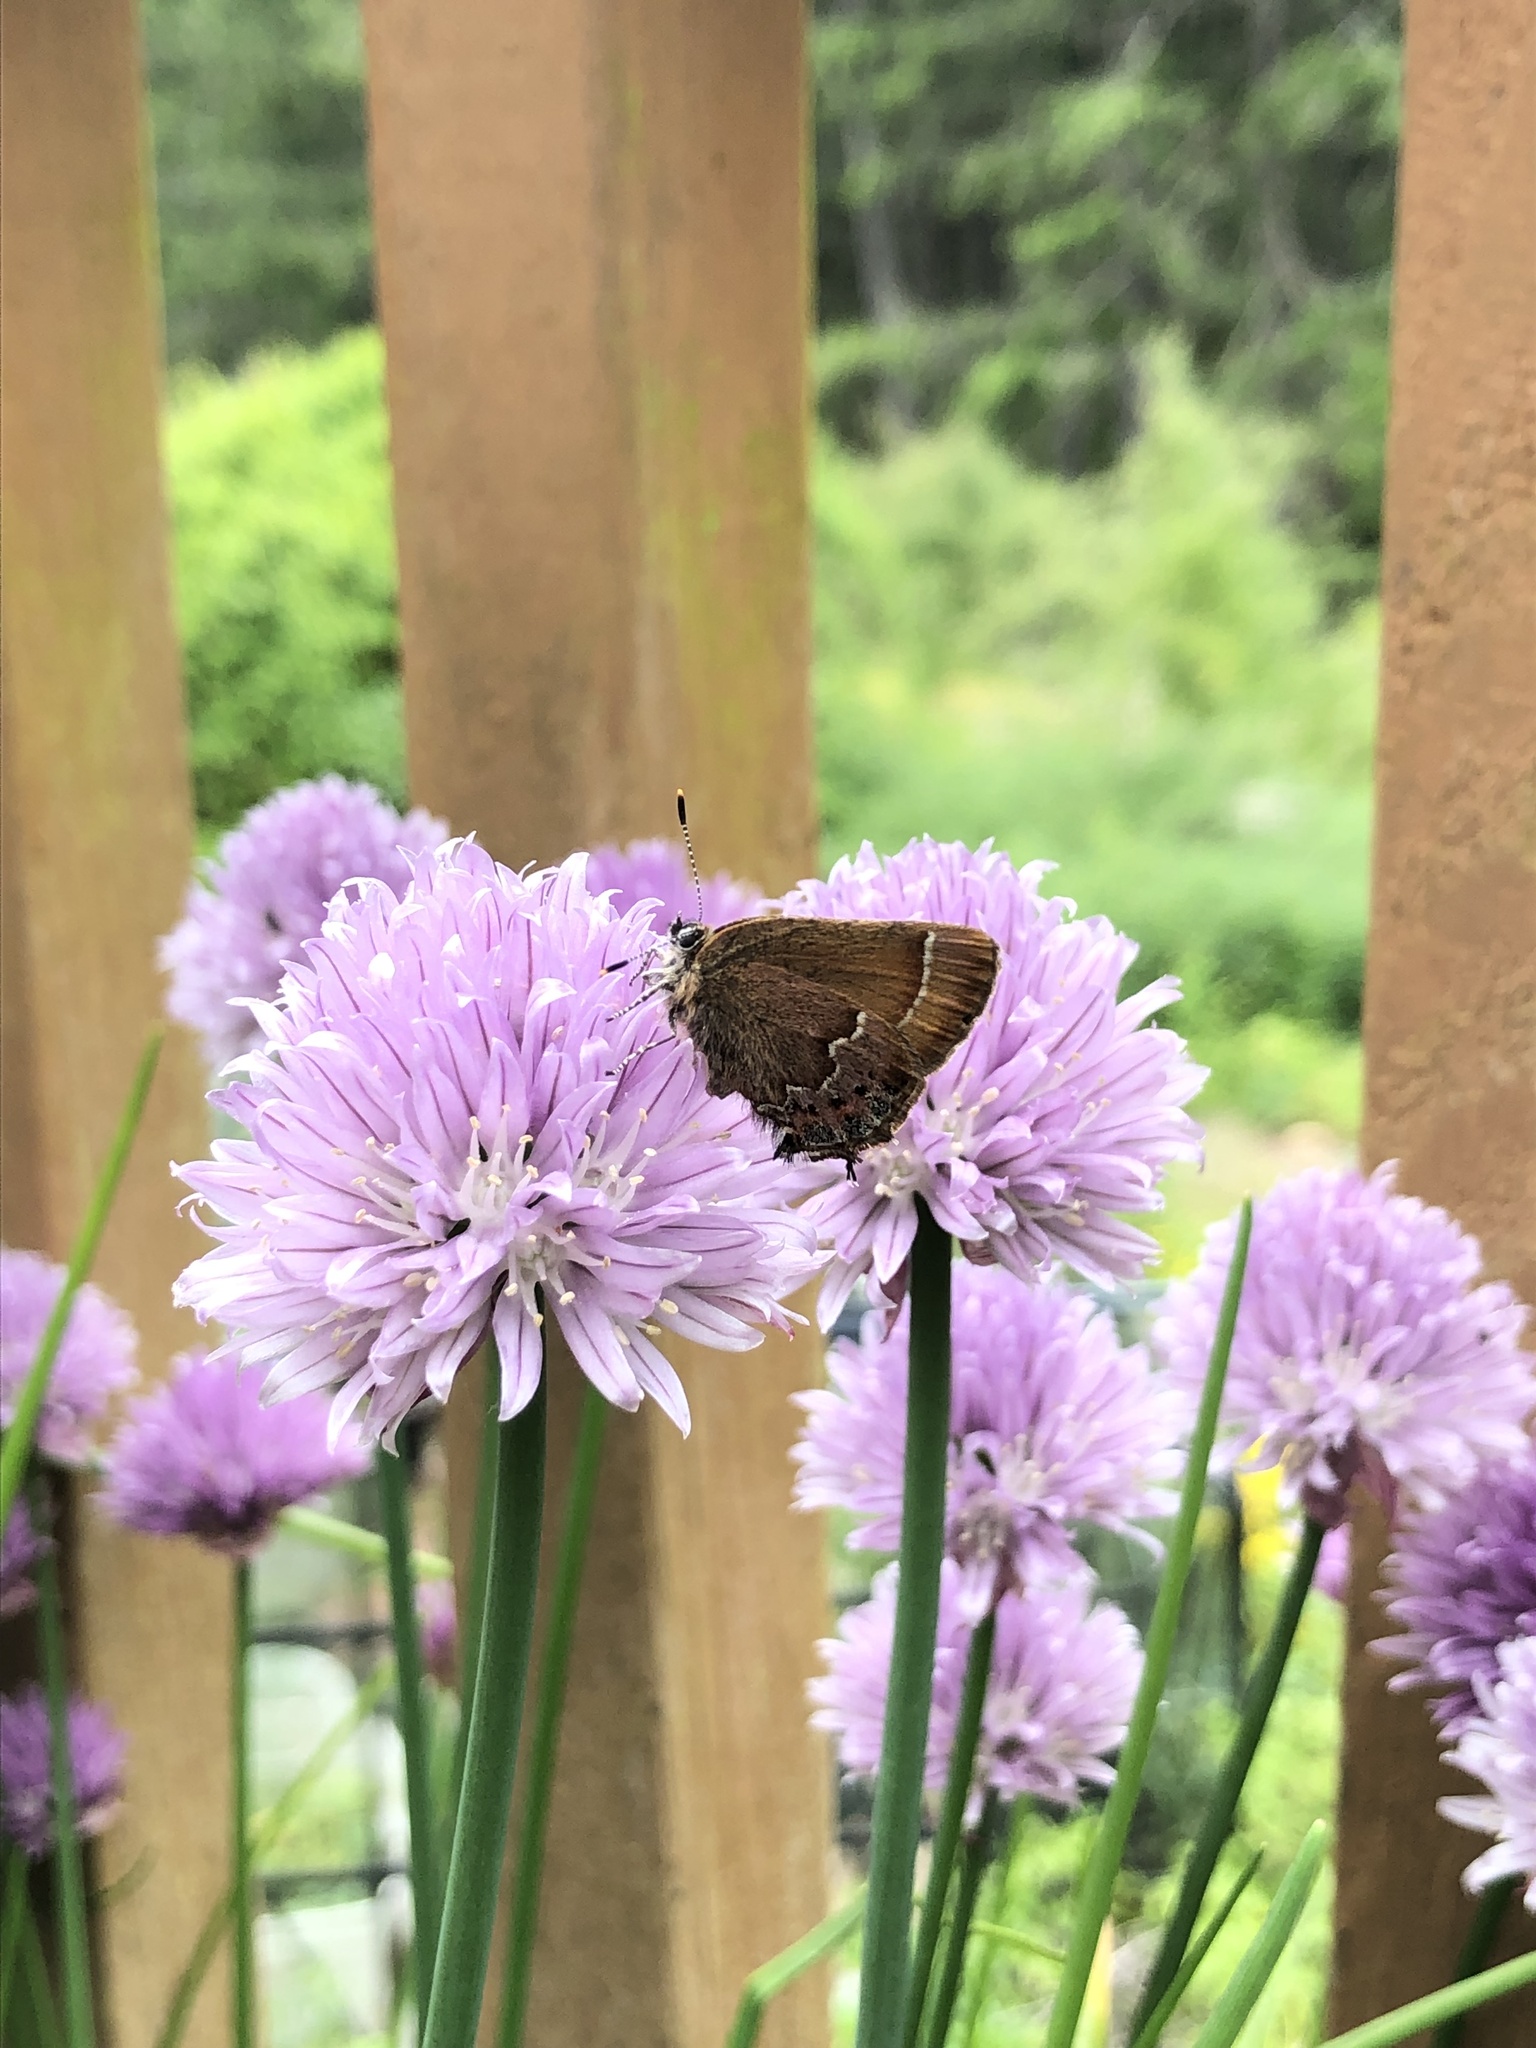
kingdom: Animalia
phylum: Arthropoda
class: Insecta
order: Lepidoptera
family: Lycaenidae
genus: Mitoura
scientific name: Mitoura gryneus
